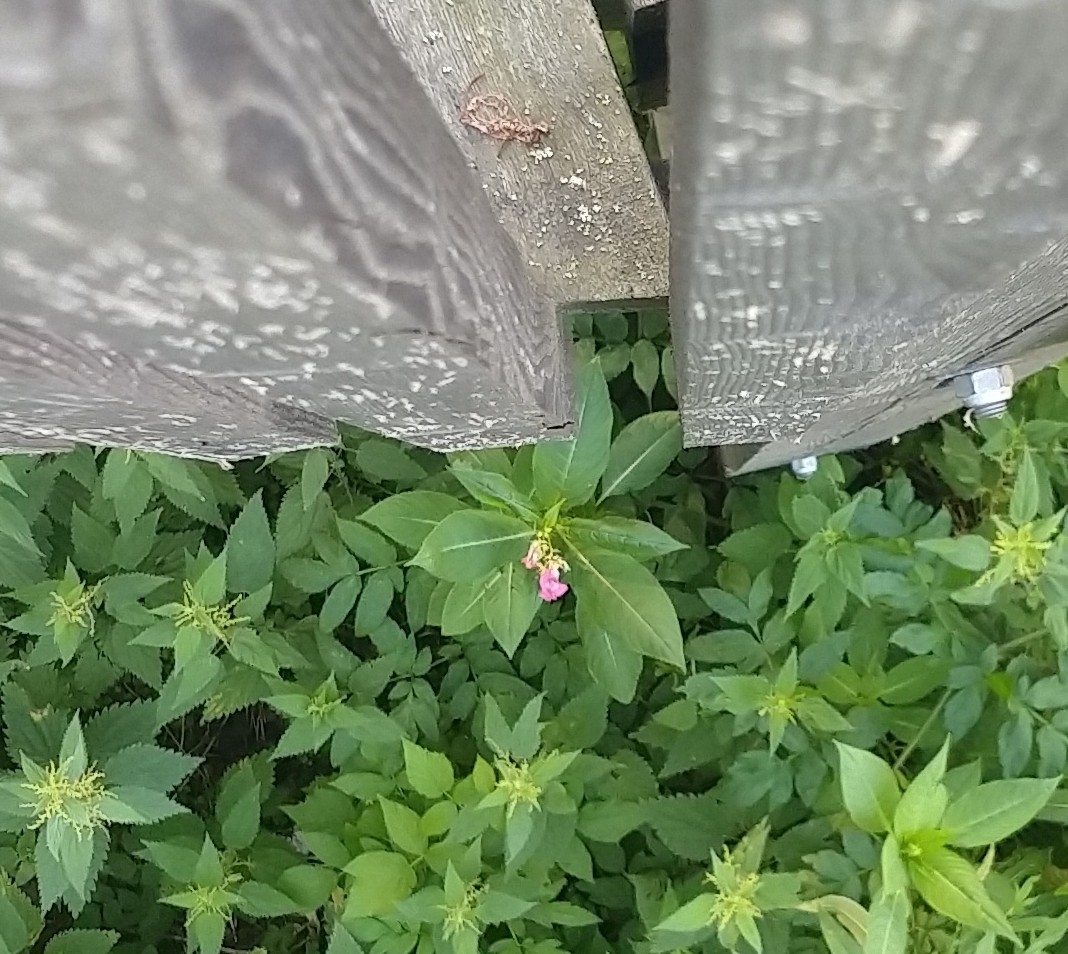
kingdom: Plantae
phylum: Tracheophyta
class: Magnoliopsida
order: Ericales
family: Balsaminaceae
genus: Impatiens
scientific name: Impatiens glandulifera
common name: Himalayan balsam
